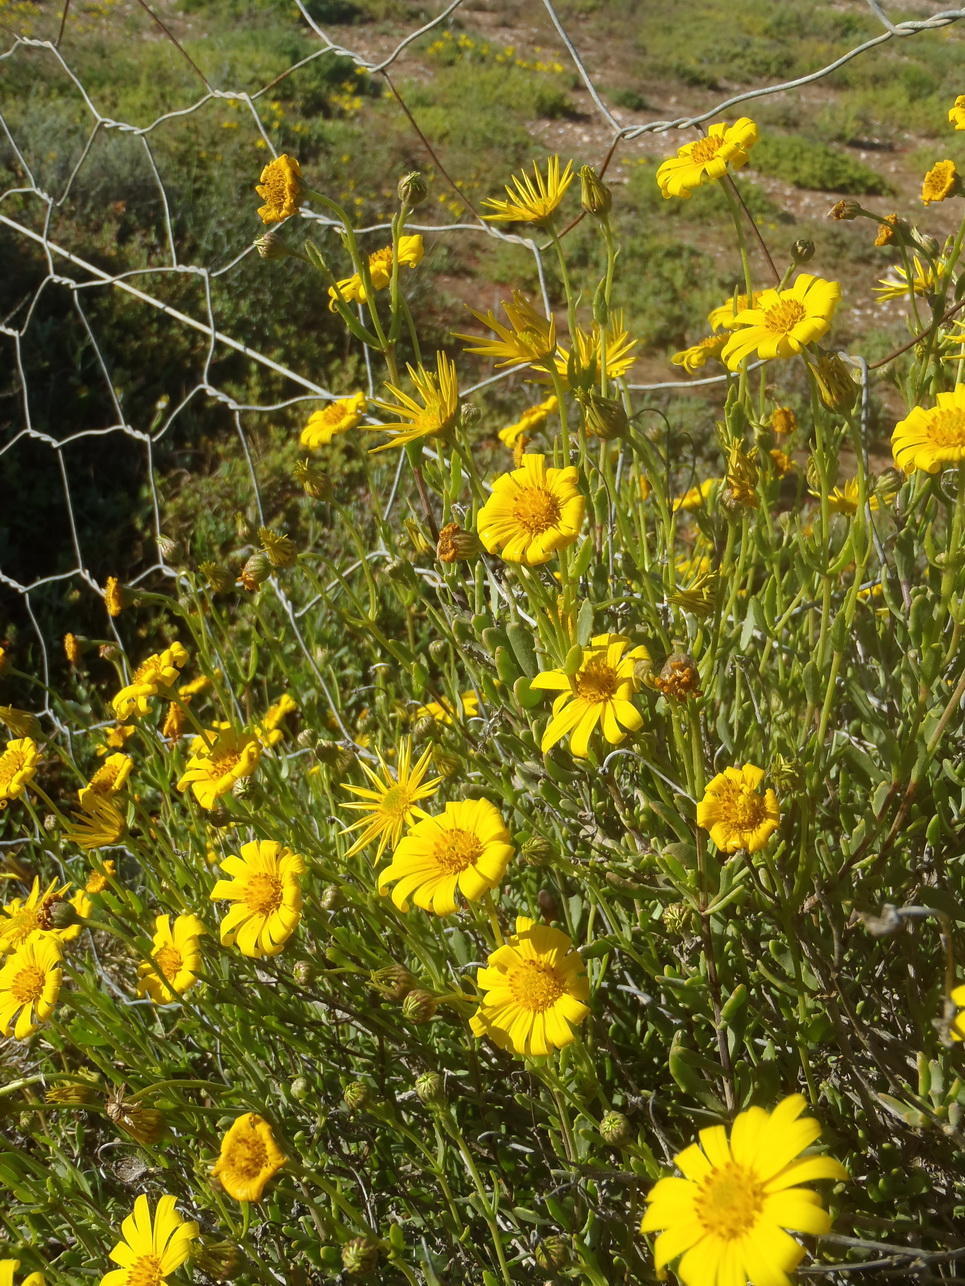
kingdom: Plantae
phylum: Tracheophyta
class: Magnoliopsida
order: Asterales
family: Asteraceae
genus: Osteospermum
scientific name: Osteospermum sinuatum
